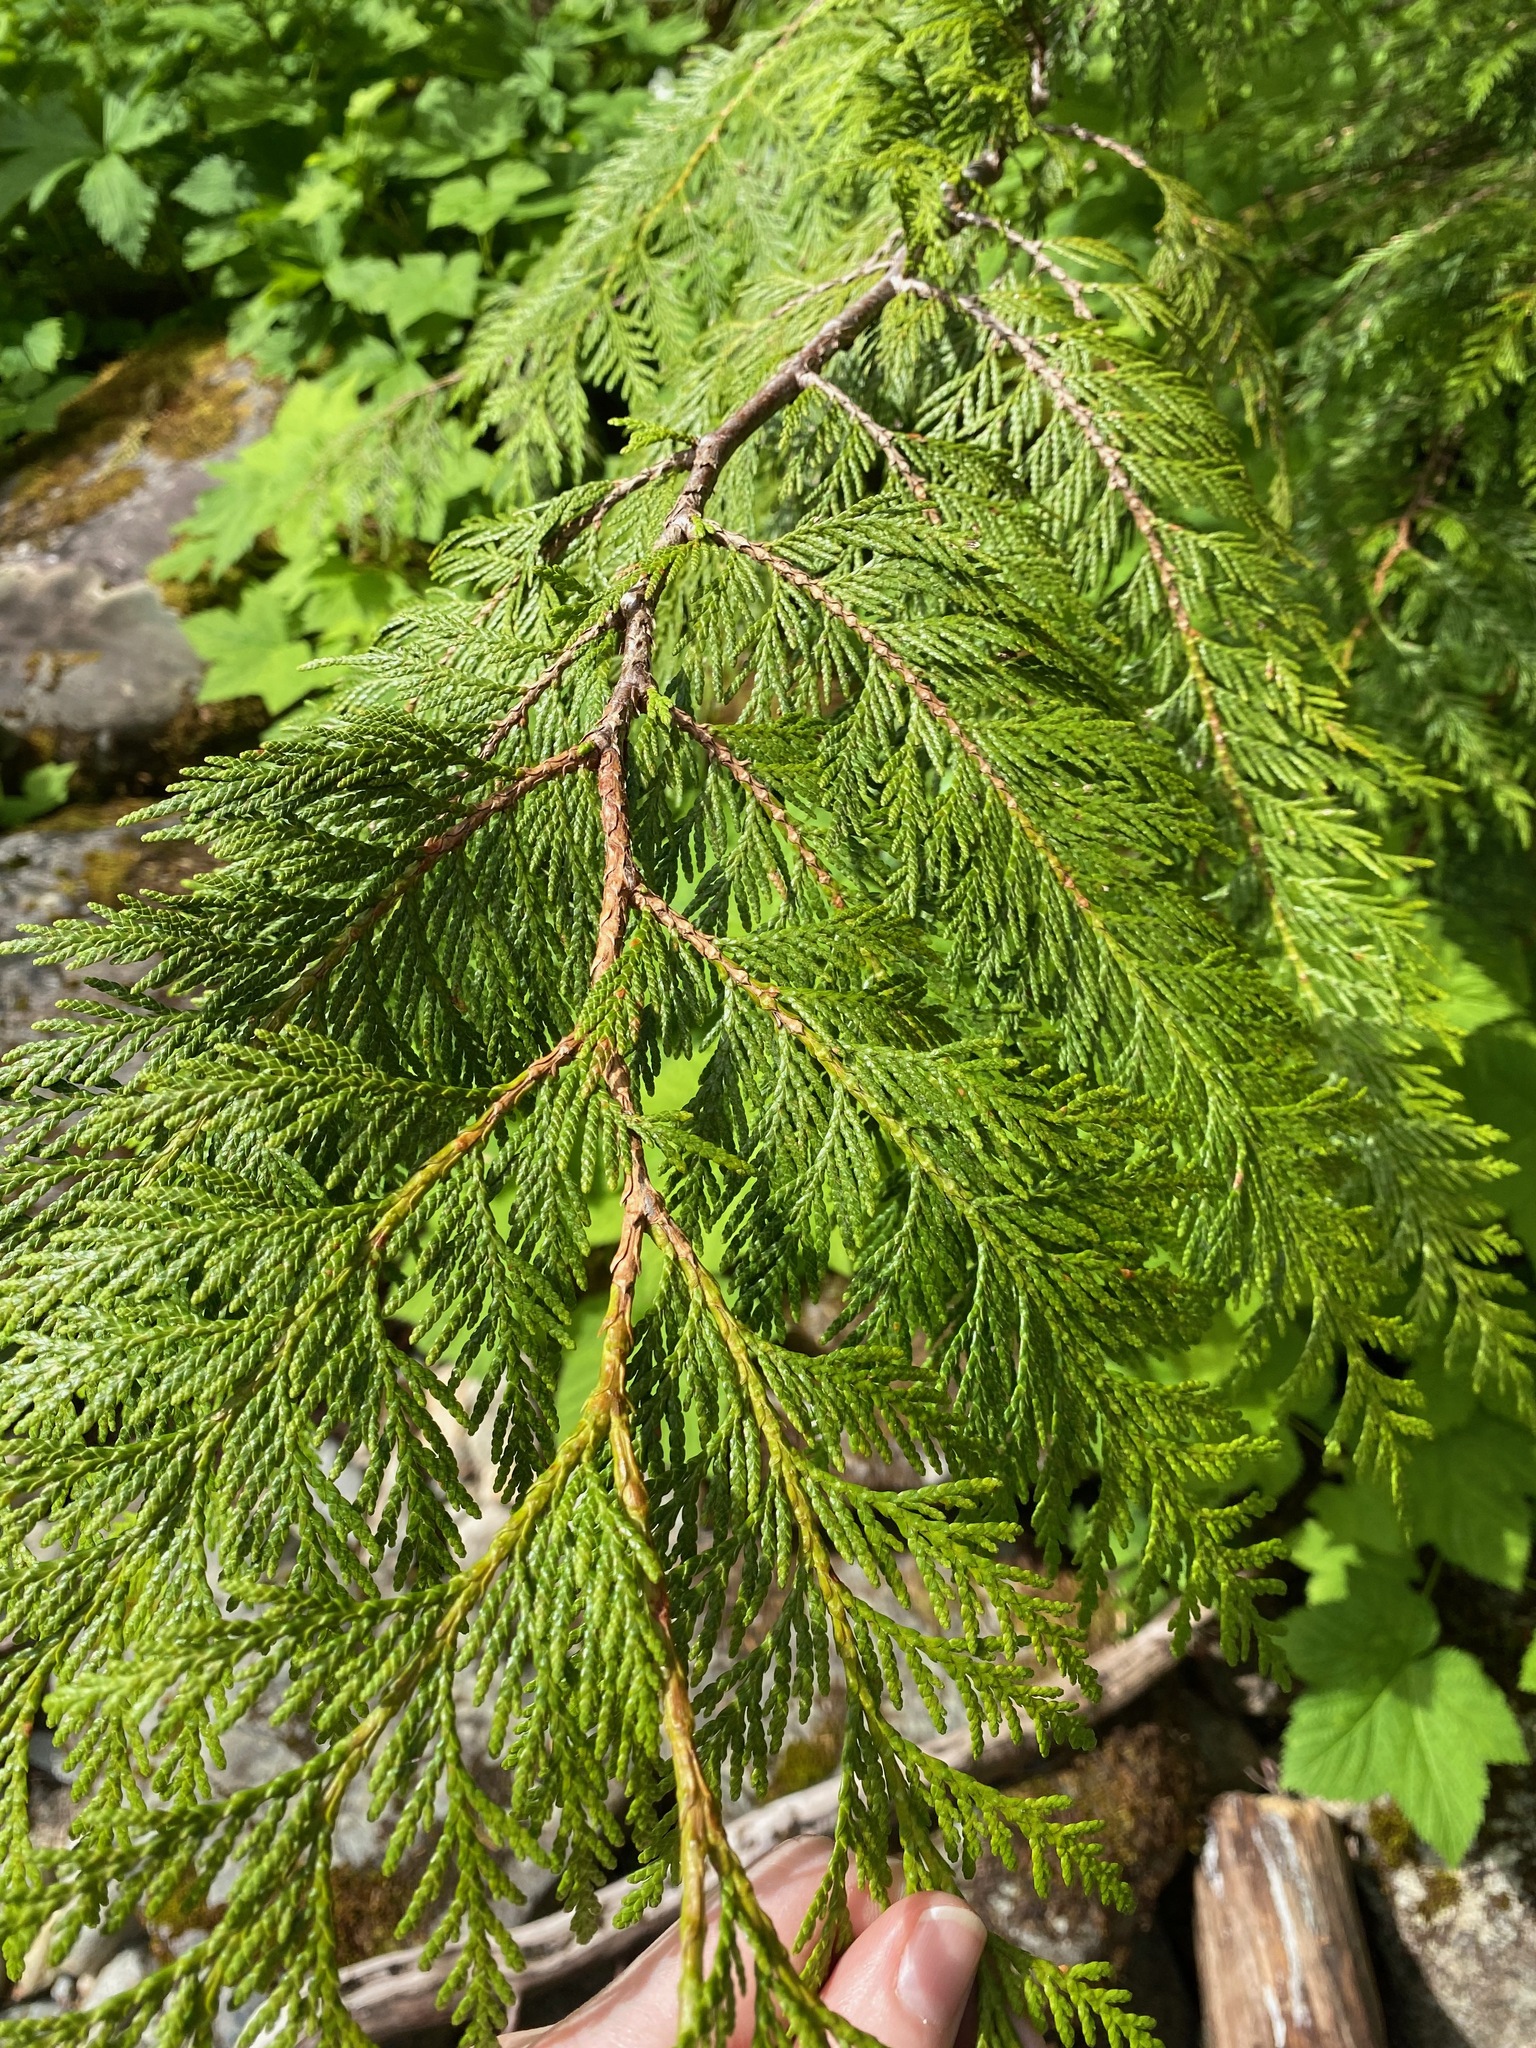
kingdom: Plantae
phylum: Tracheophyta
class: Pinopsida
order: Pinales
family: Cupressaceae
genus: Thuja
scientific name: Thuja plicata
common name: Western red-cedar
